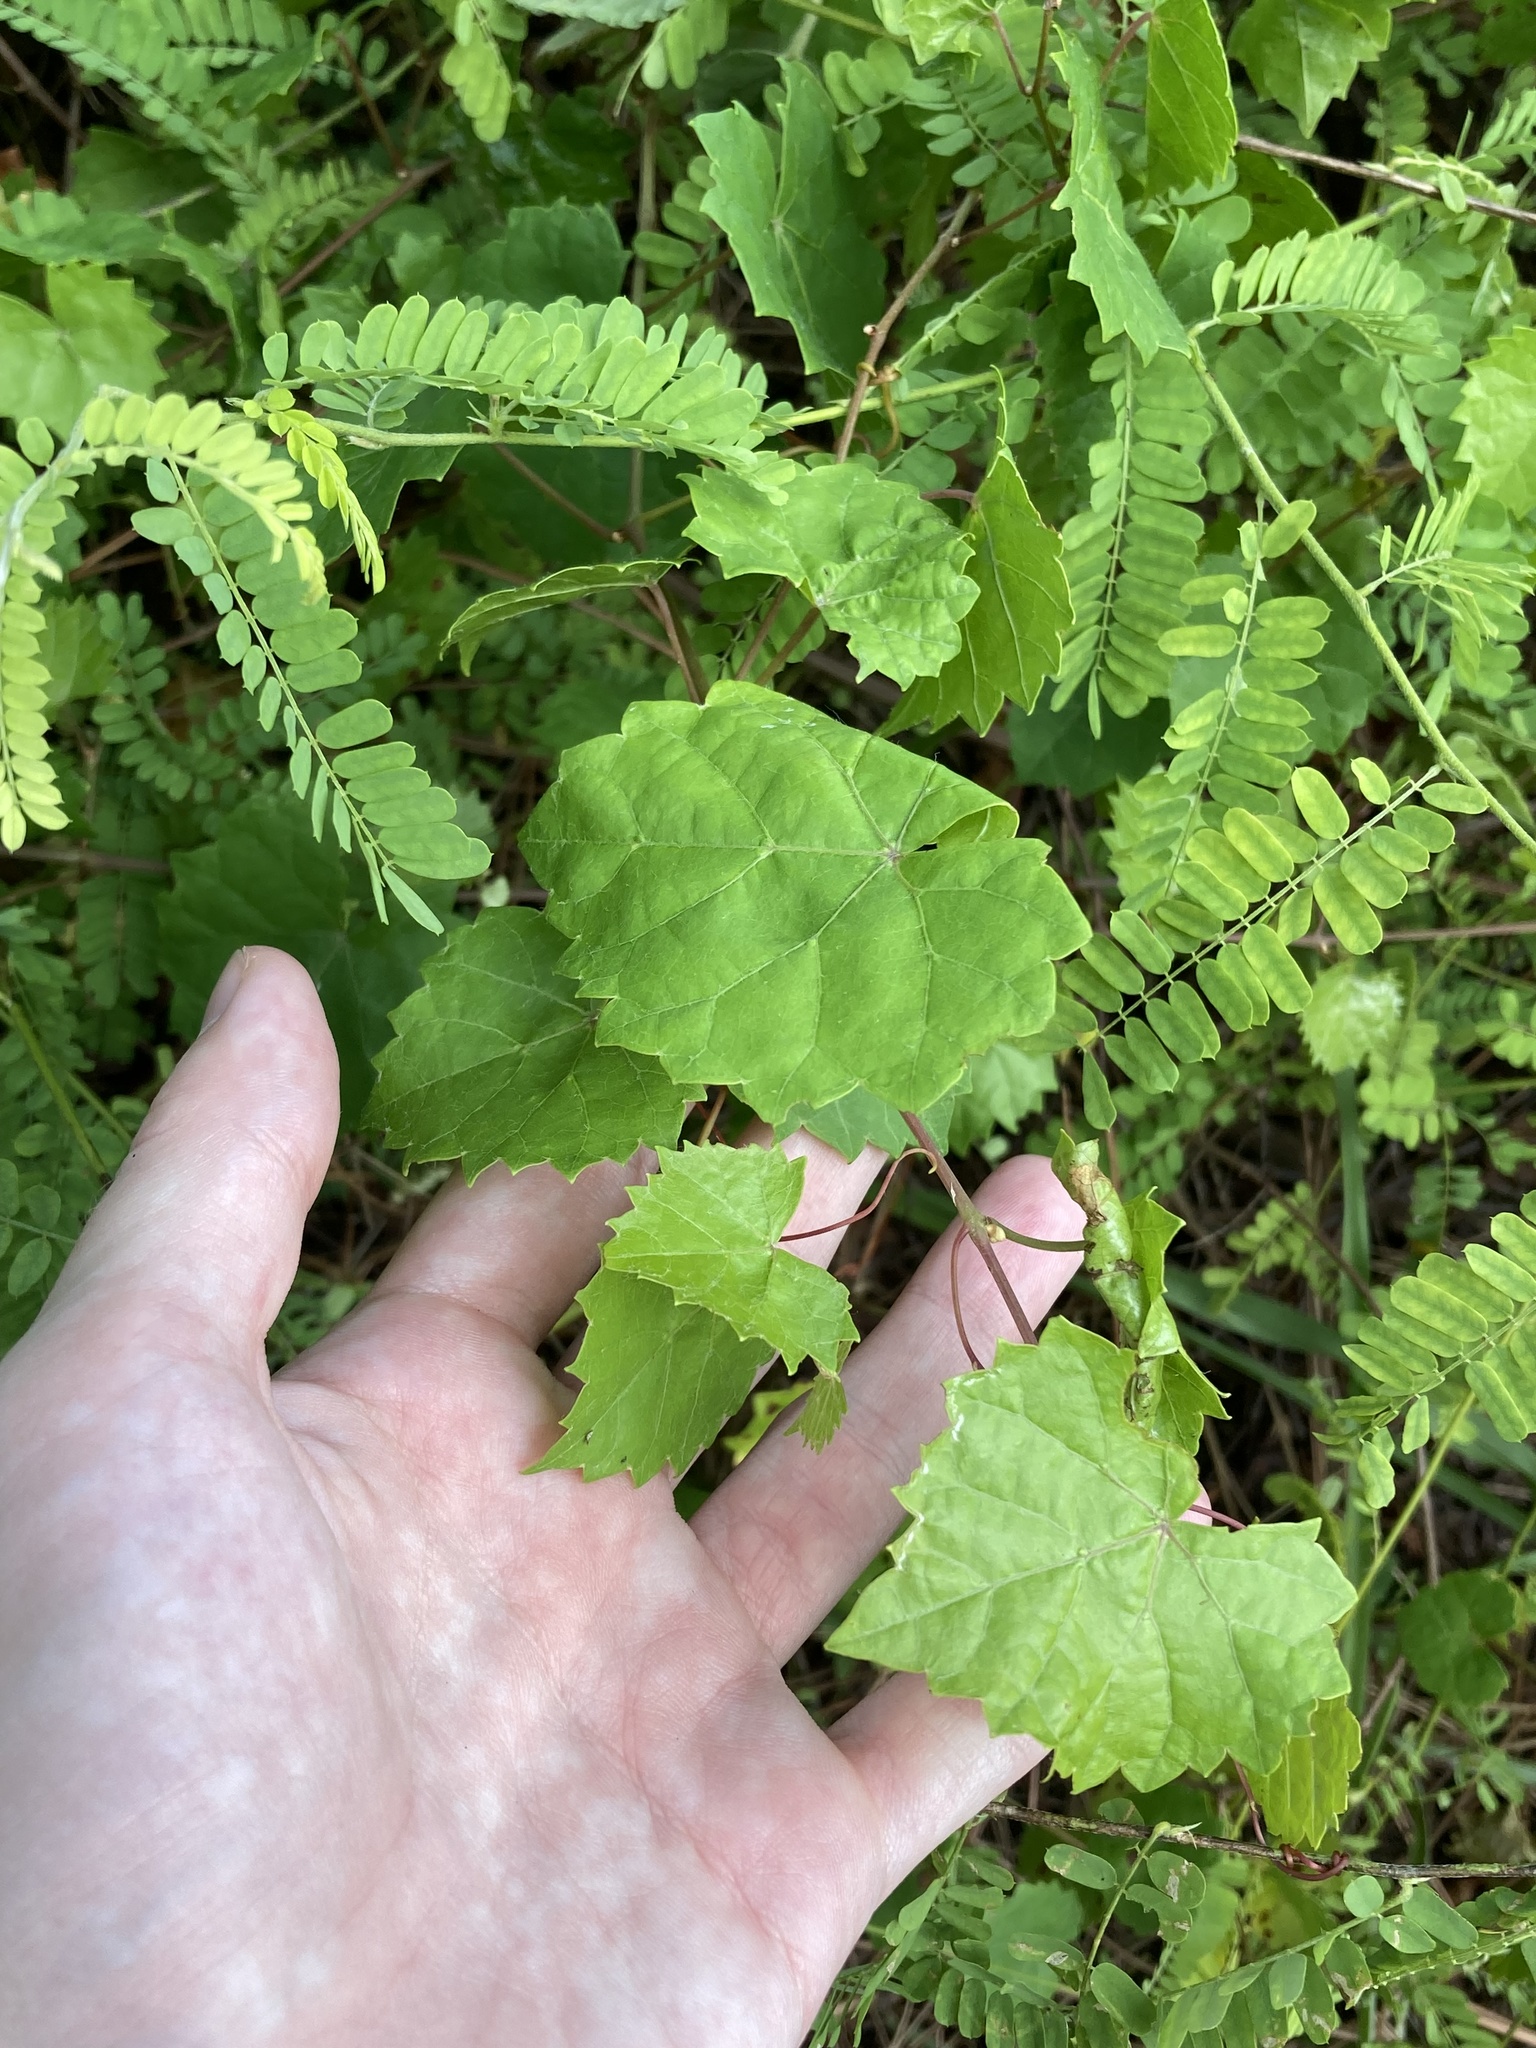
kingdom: Plantae
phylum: Tracheophyta
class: Magnoliopsida
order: Vitales
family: Vitaceae
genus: Vitis
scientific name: Vitis rotundifolia
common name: Muscadine grape
